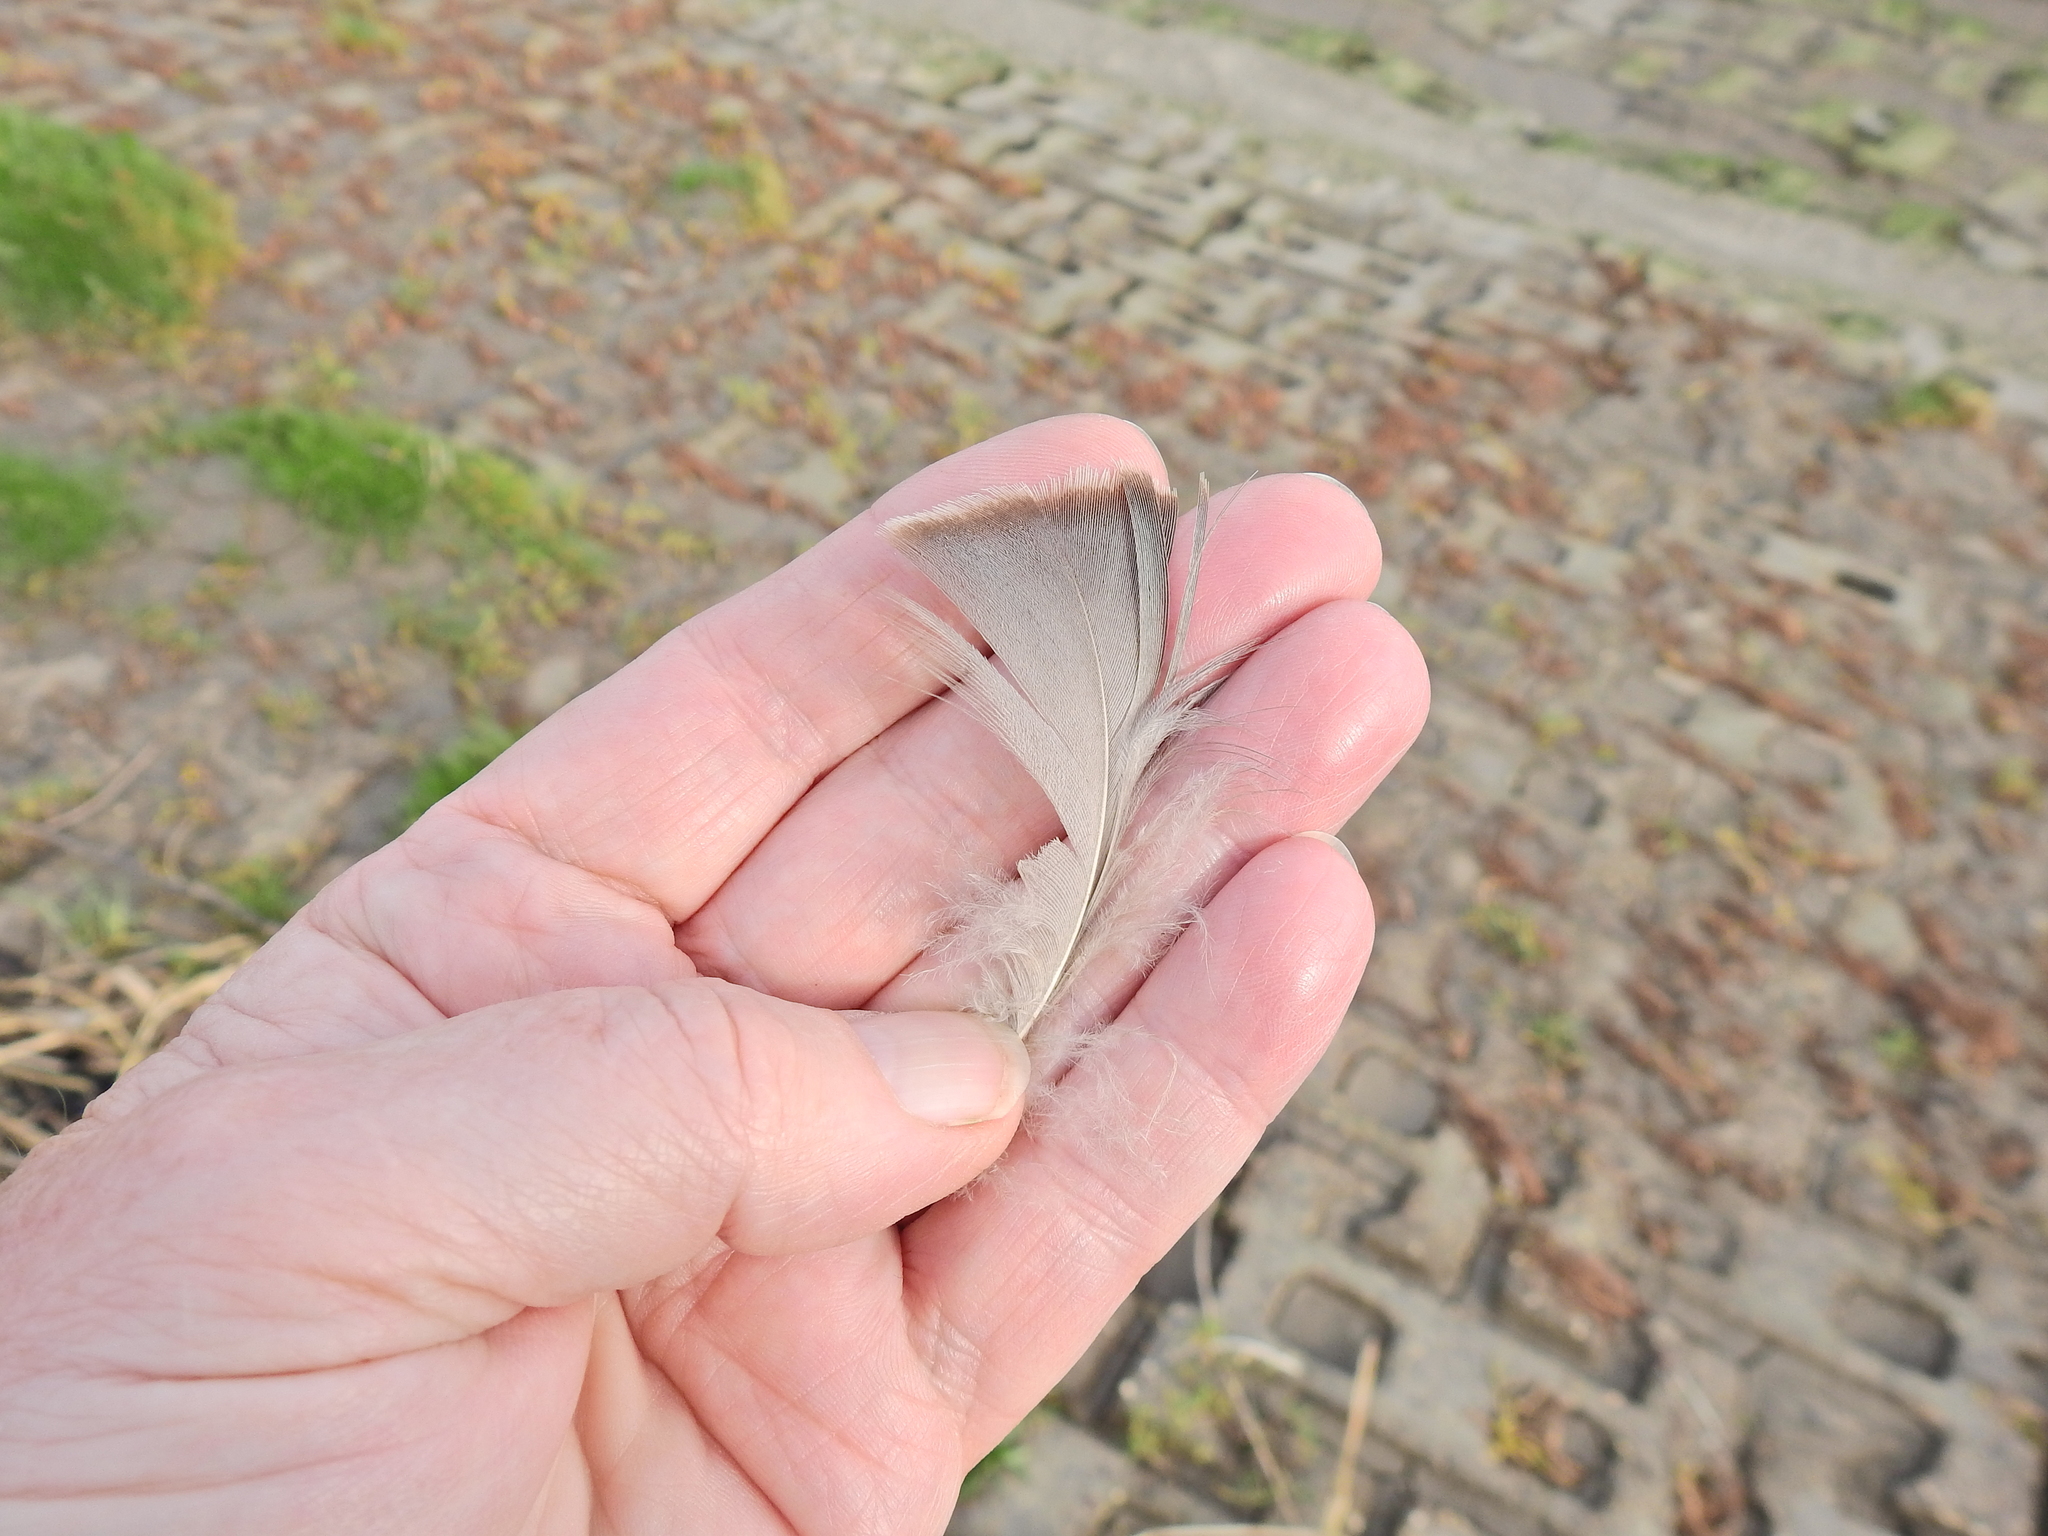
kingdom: Animalia
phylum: Chordata
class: Aves
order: Anseriformes
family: Anatidae
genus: Anser
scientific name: Anser anser
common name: Greylag goose
